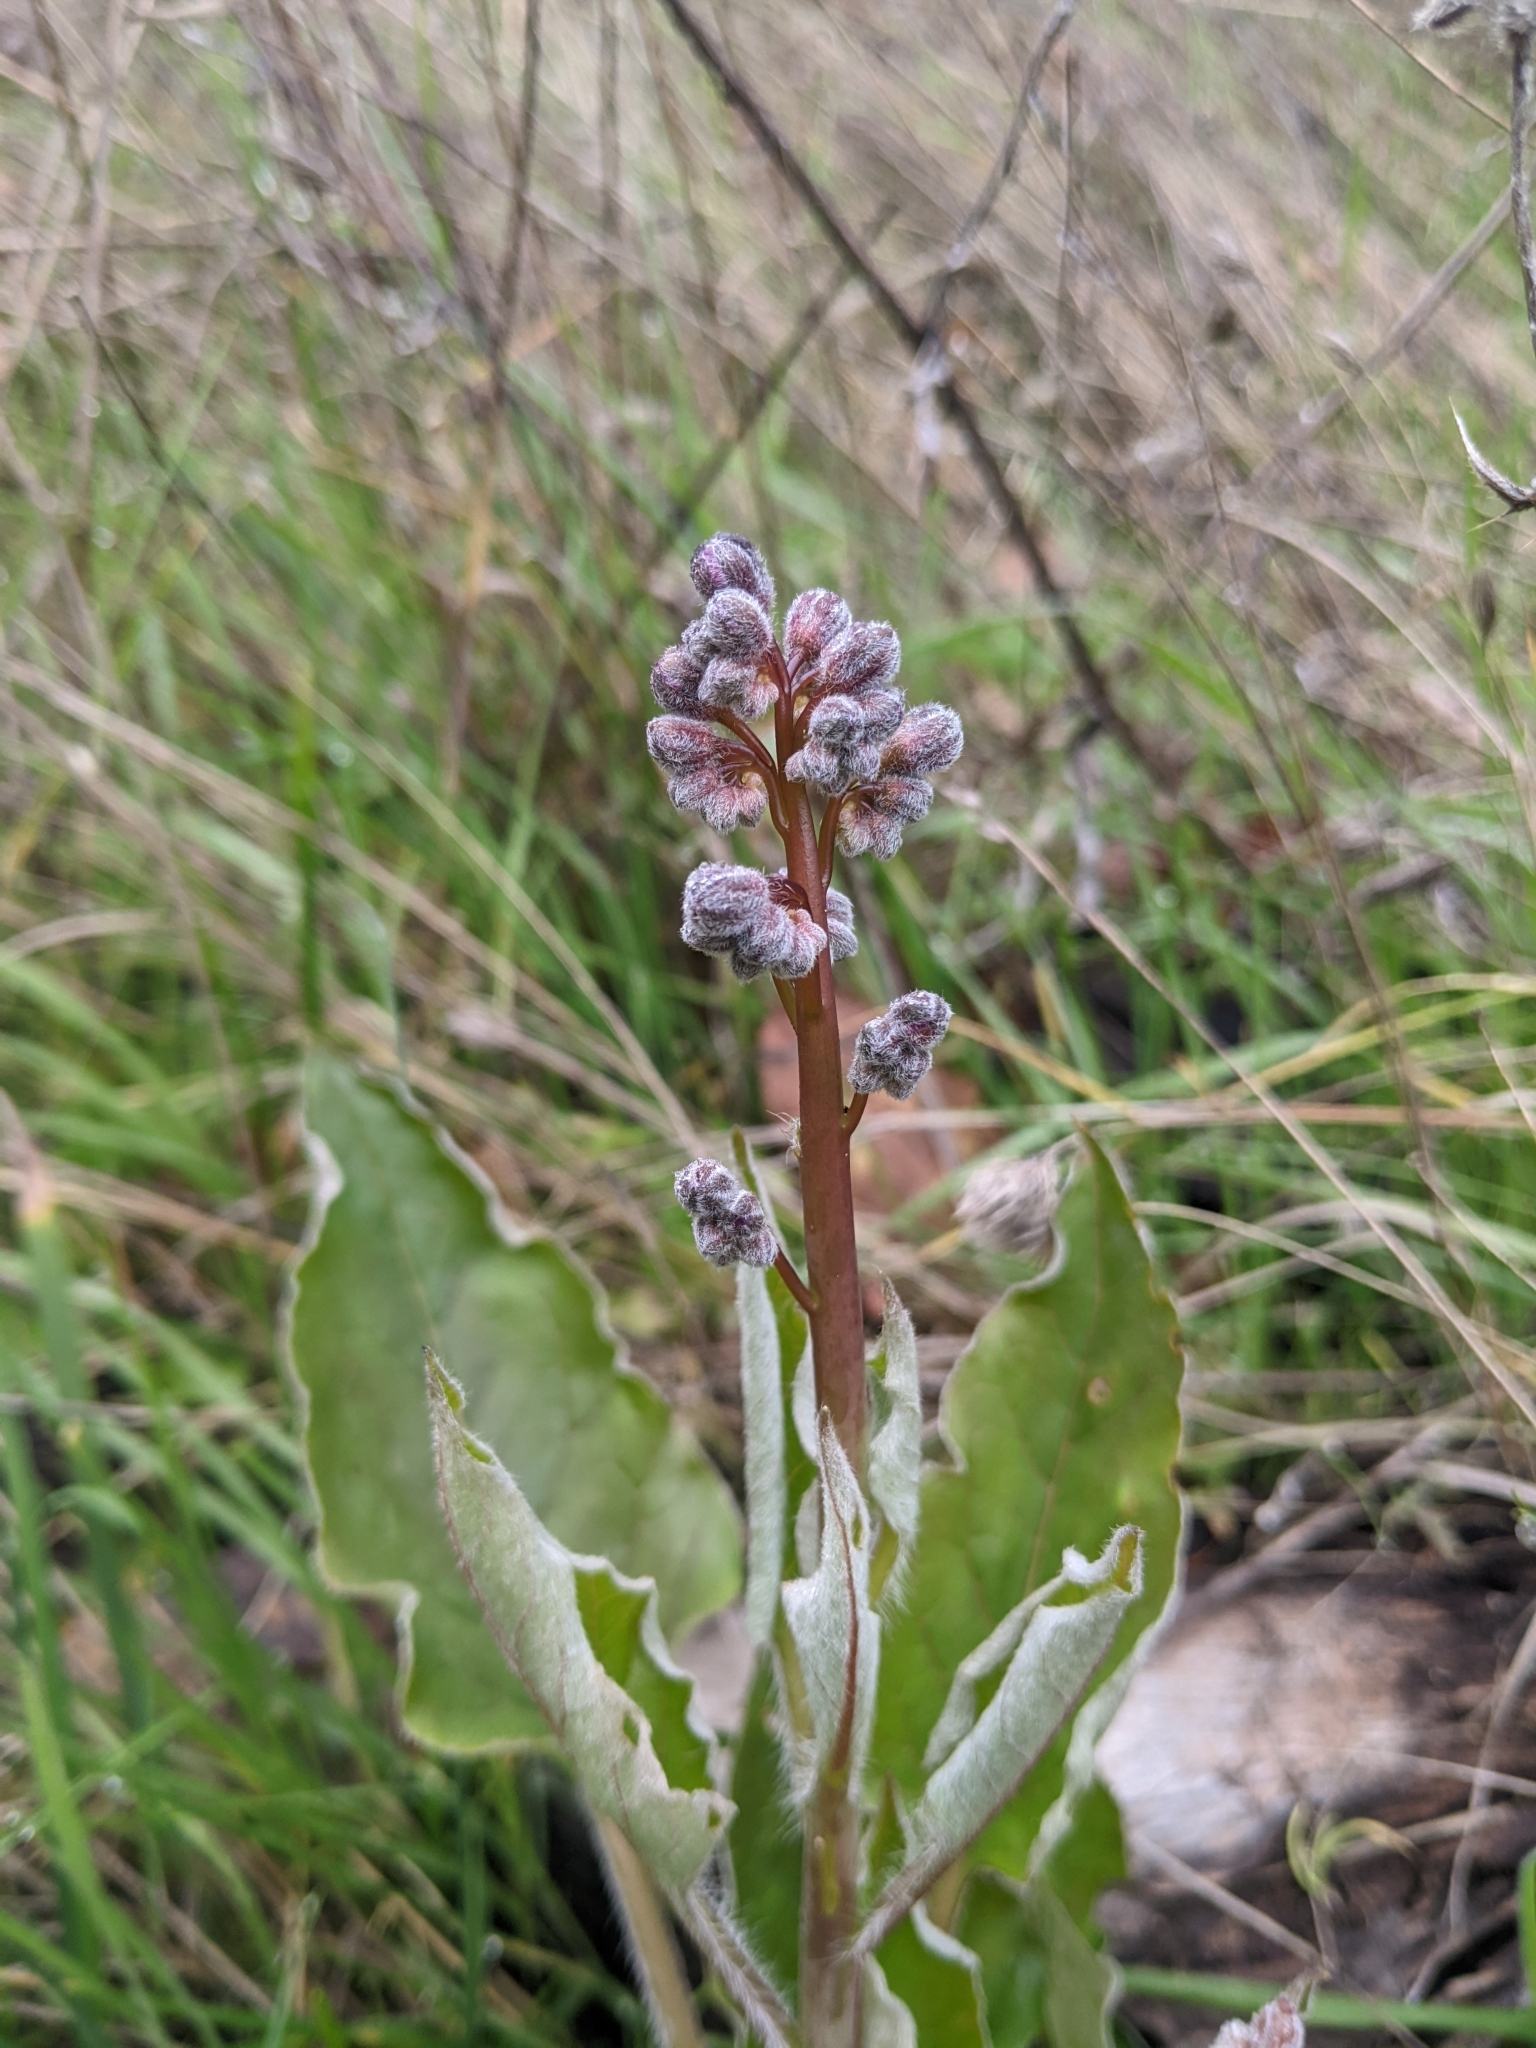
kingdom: Plantae
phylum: Tracheophyta
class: Magnoliopsida
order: Boraginales
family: Boraginaceae
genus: Adelinia
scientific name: Adelinia grande
